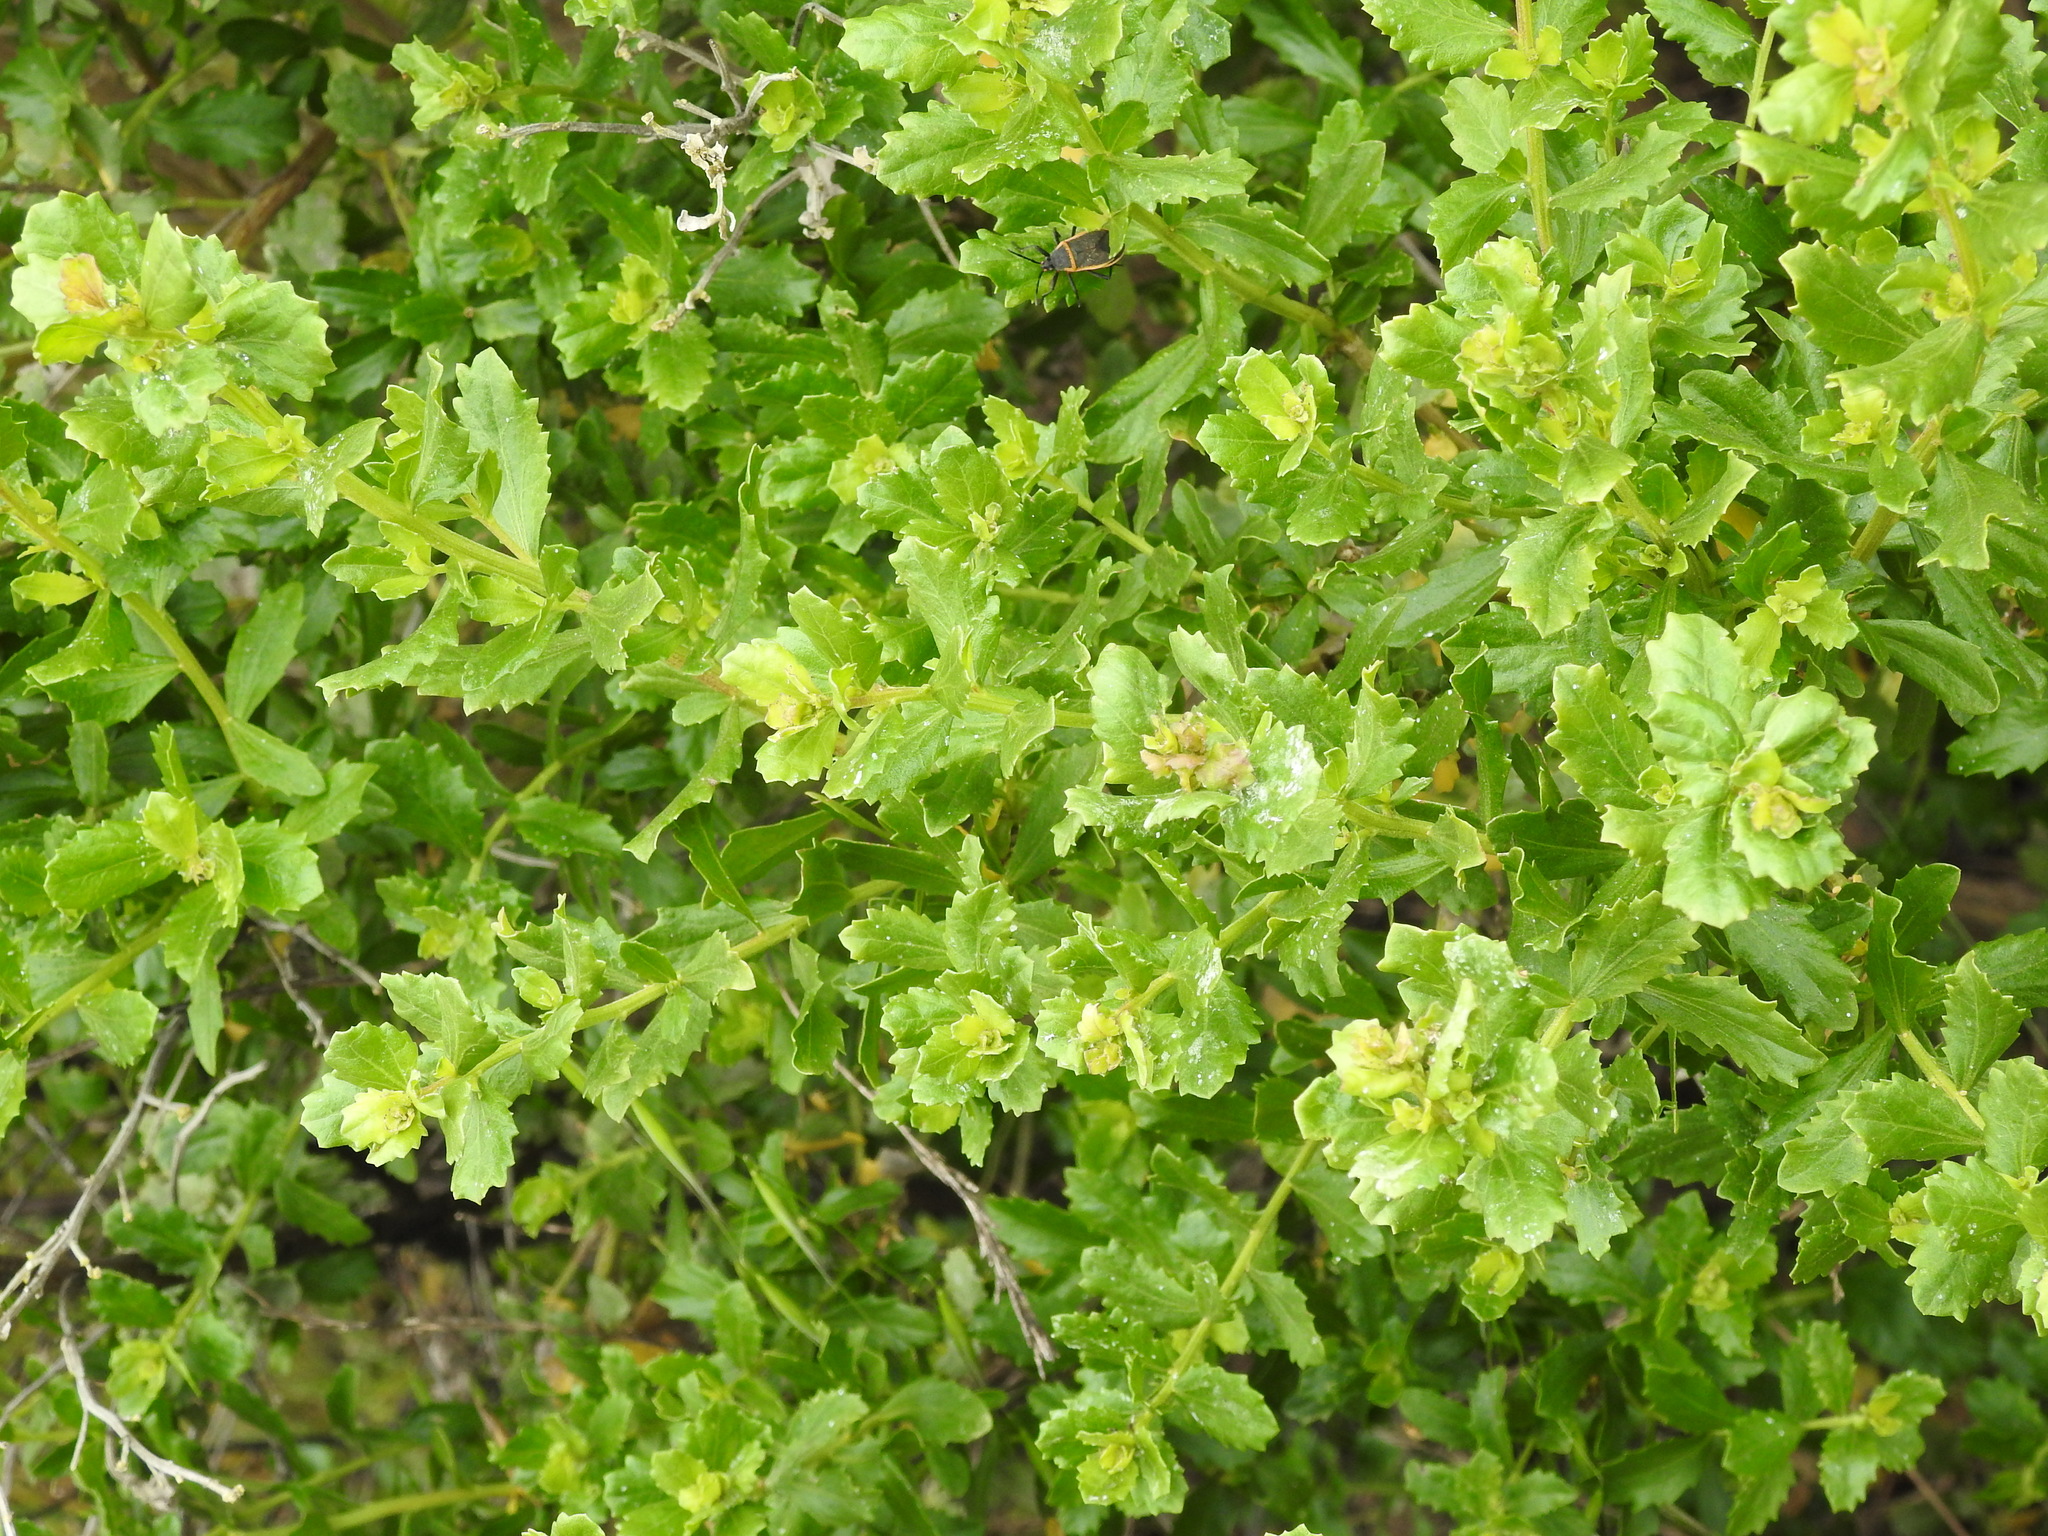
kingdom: Plantae
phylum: Tracheophyta
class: Magnoliopsida
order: Asterales
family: Asteraceae
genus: Baccharis
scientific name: Baccharis pilularis
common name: Coyotebrush
